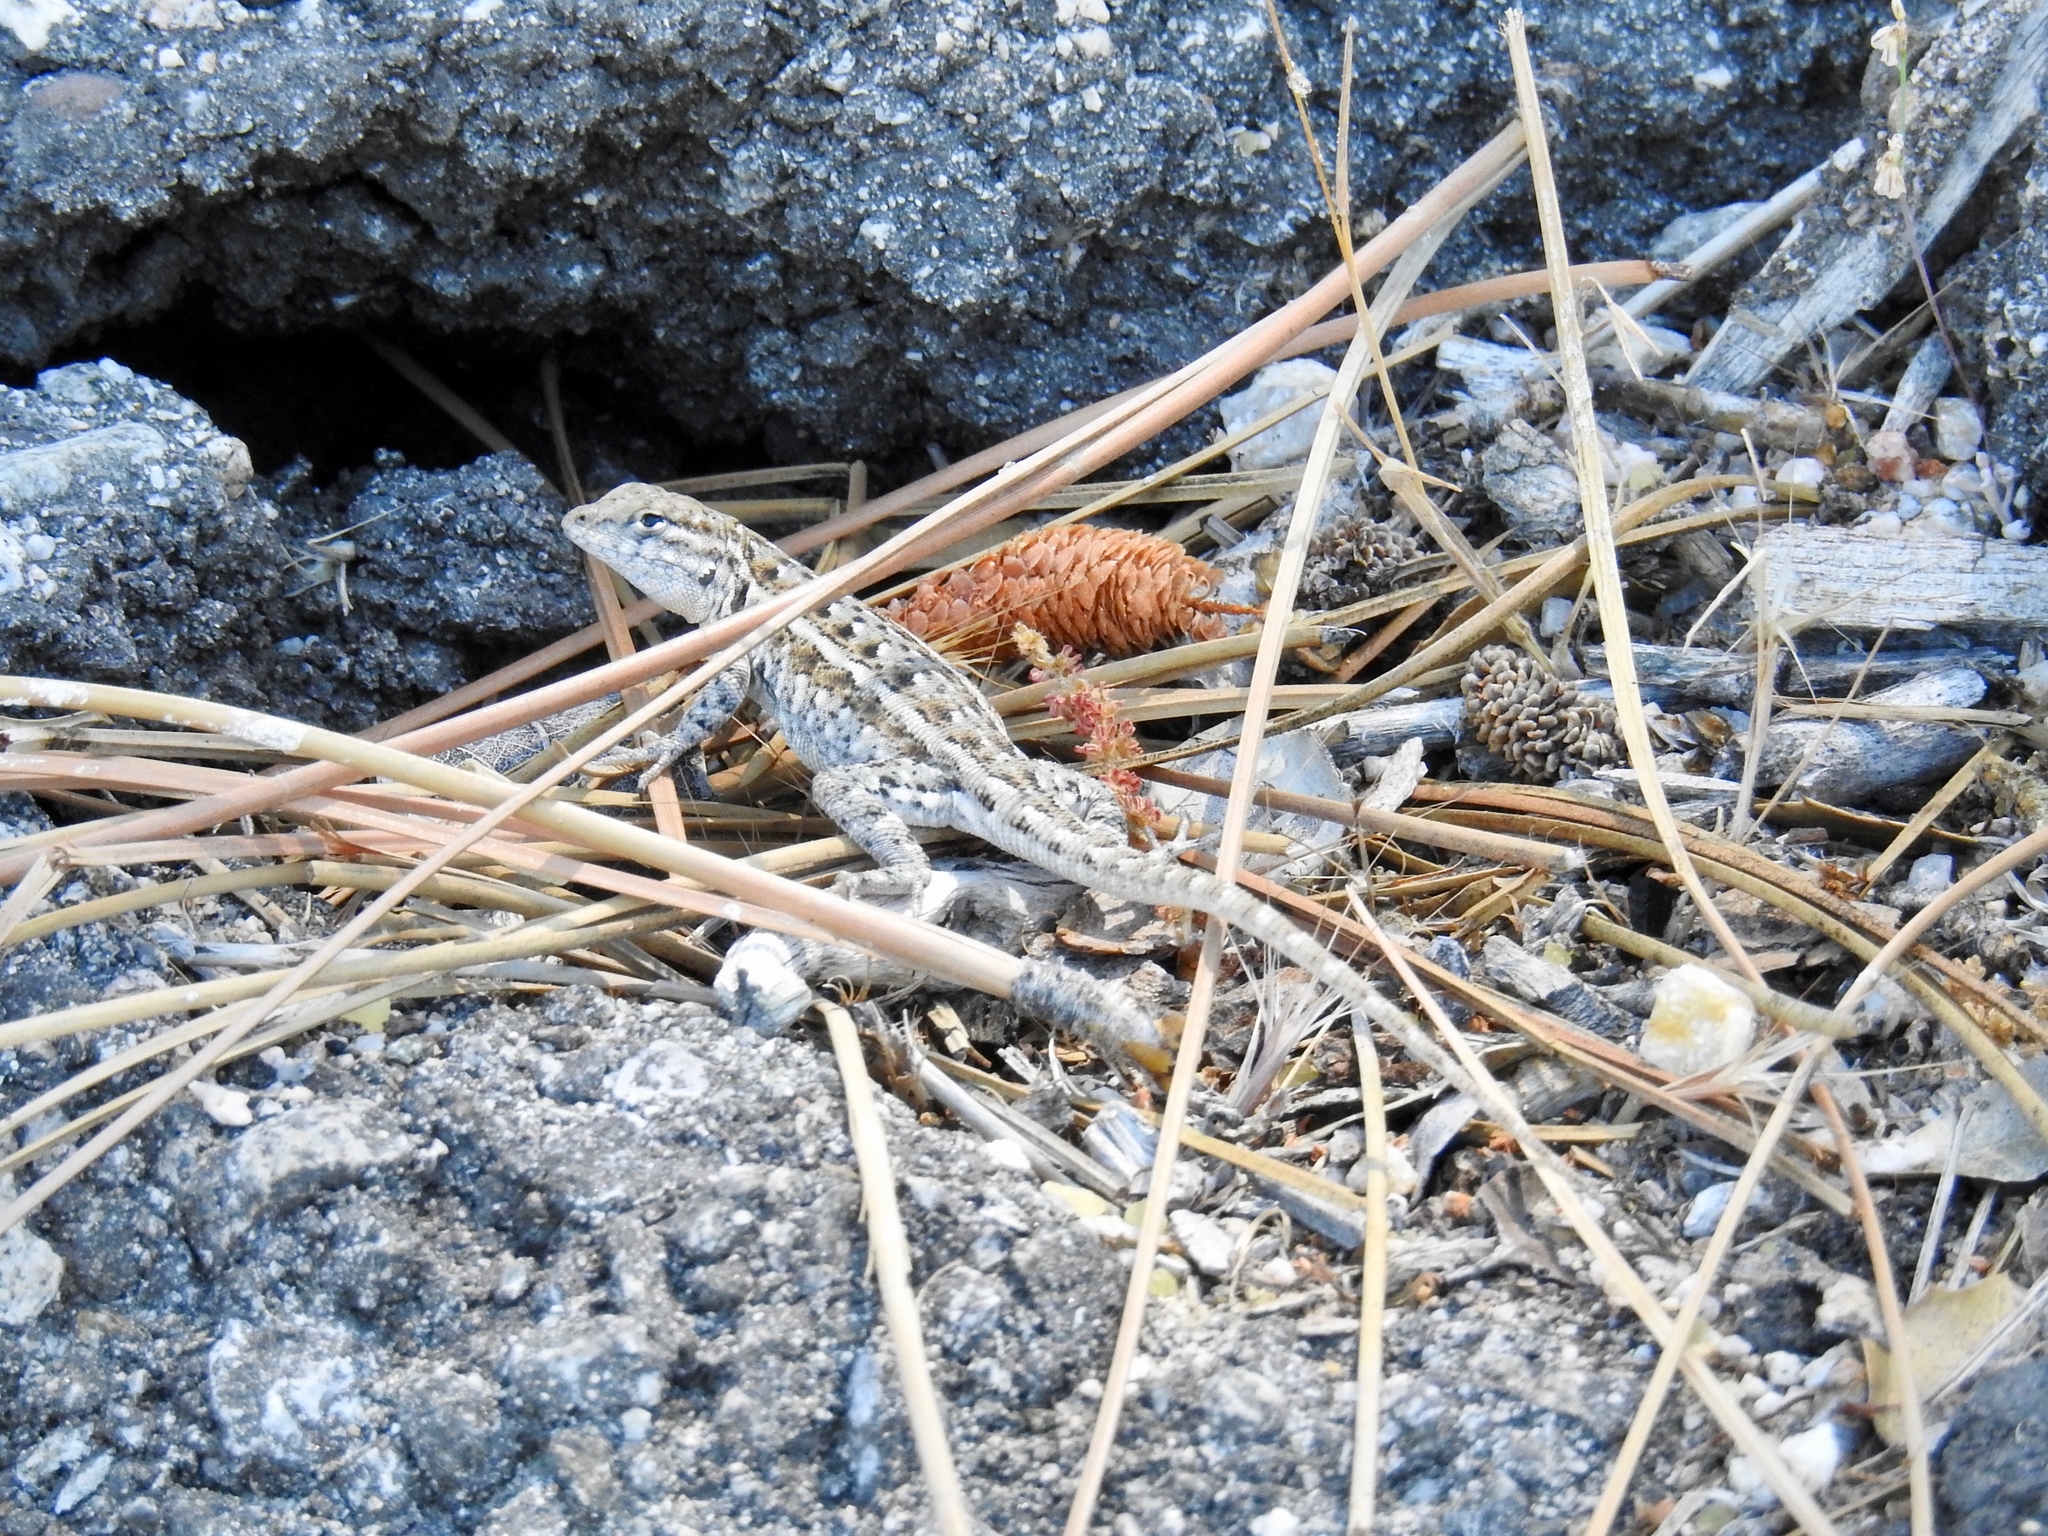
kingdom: Animalia
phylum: Chordata
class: Squamata
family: Phrynosomatidae
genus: Uta
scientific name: Uta stansburiana
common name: Side-blotched lizard
